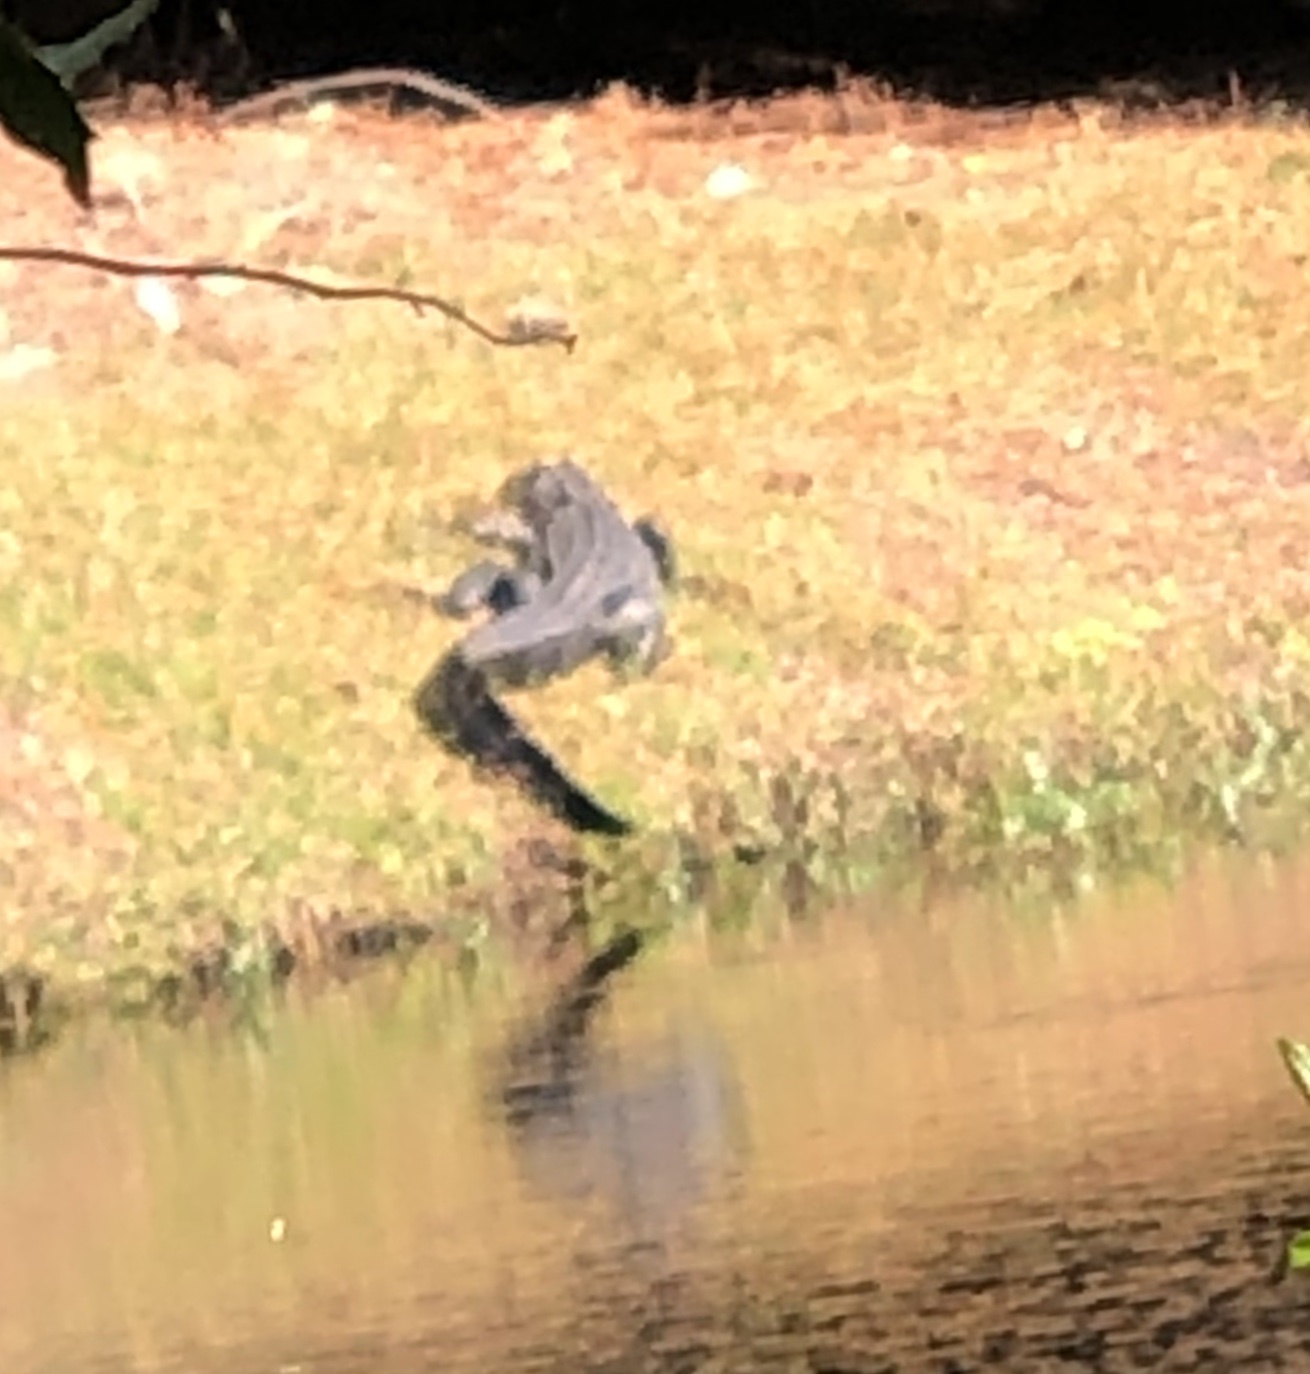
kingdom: Animalia
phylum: Chordata
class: Crocodylia
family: Alligatoridae
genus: Alligator
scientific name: Alligator mississippiensis
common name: American alligator
